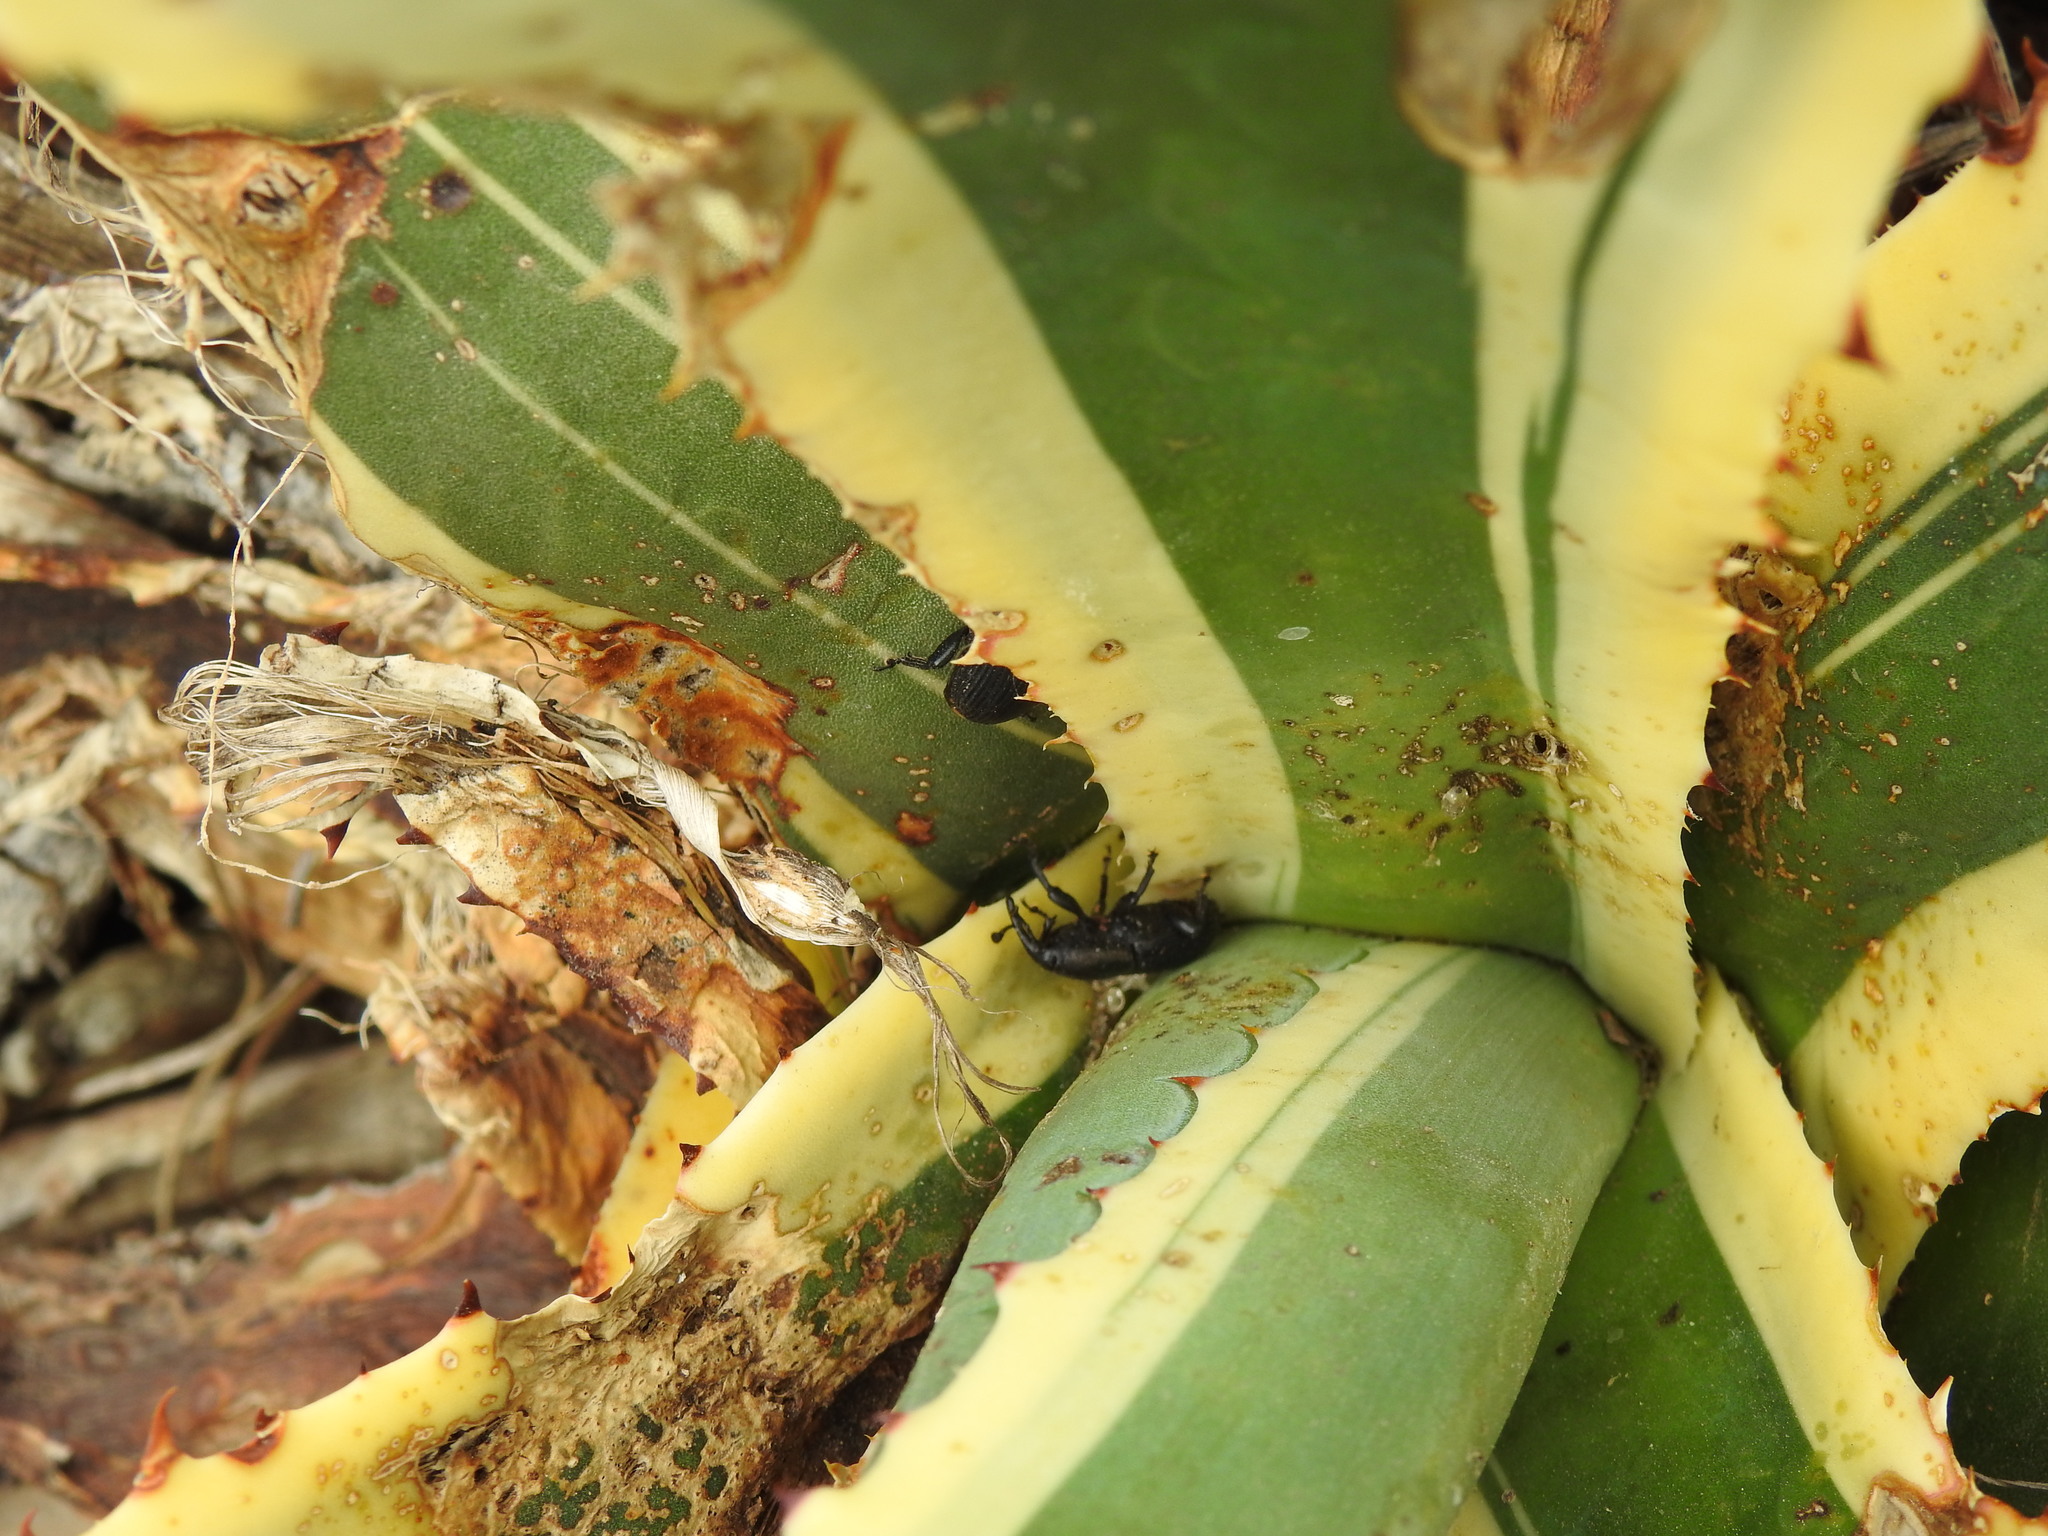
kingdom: Animalia
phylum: Arthropoda
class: Insecta
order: Coleoptera
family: Dryophthoridae
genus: Scyphophorus
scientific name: Scyphophorus acupunctatus
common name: Weevil
